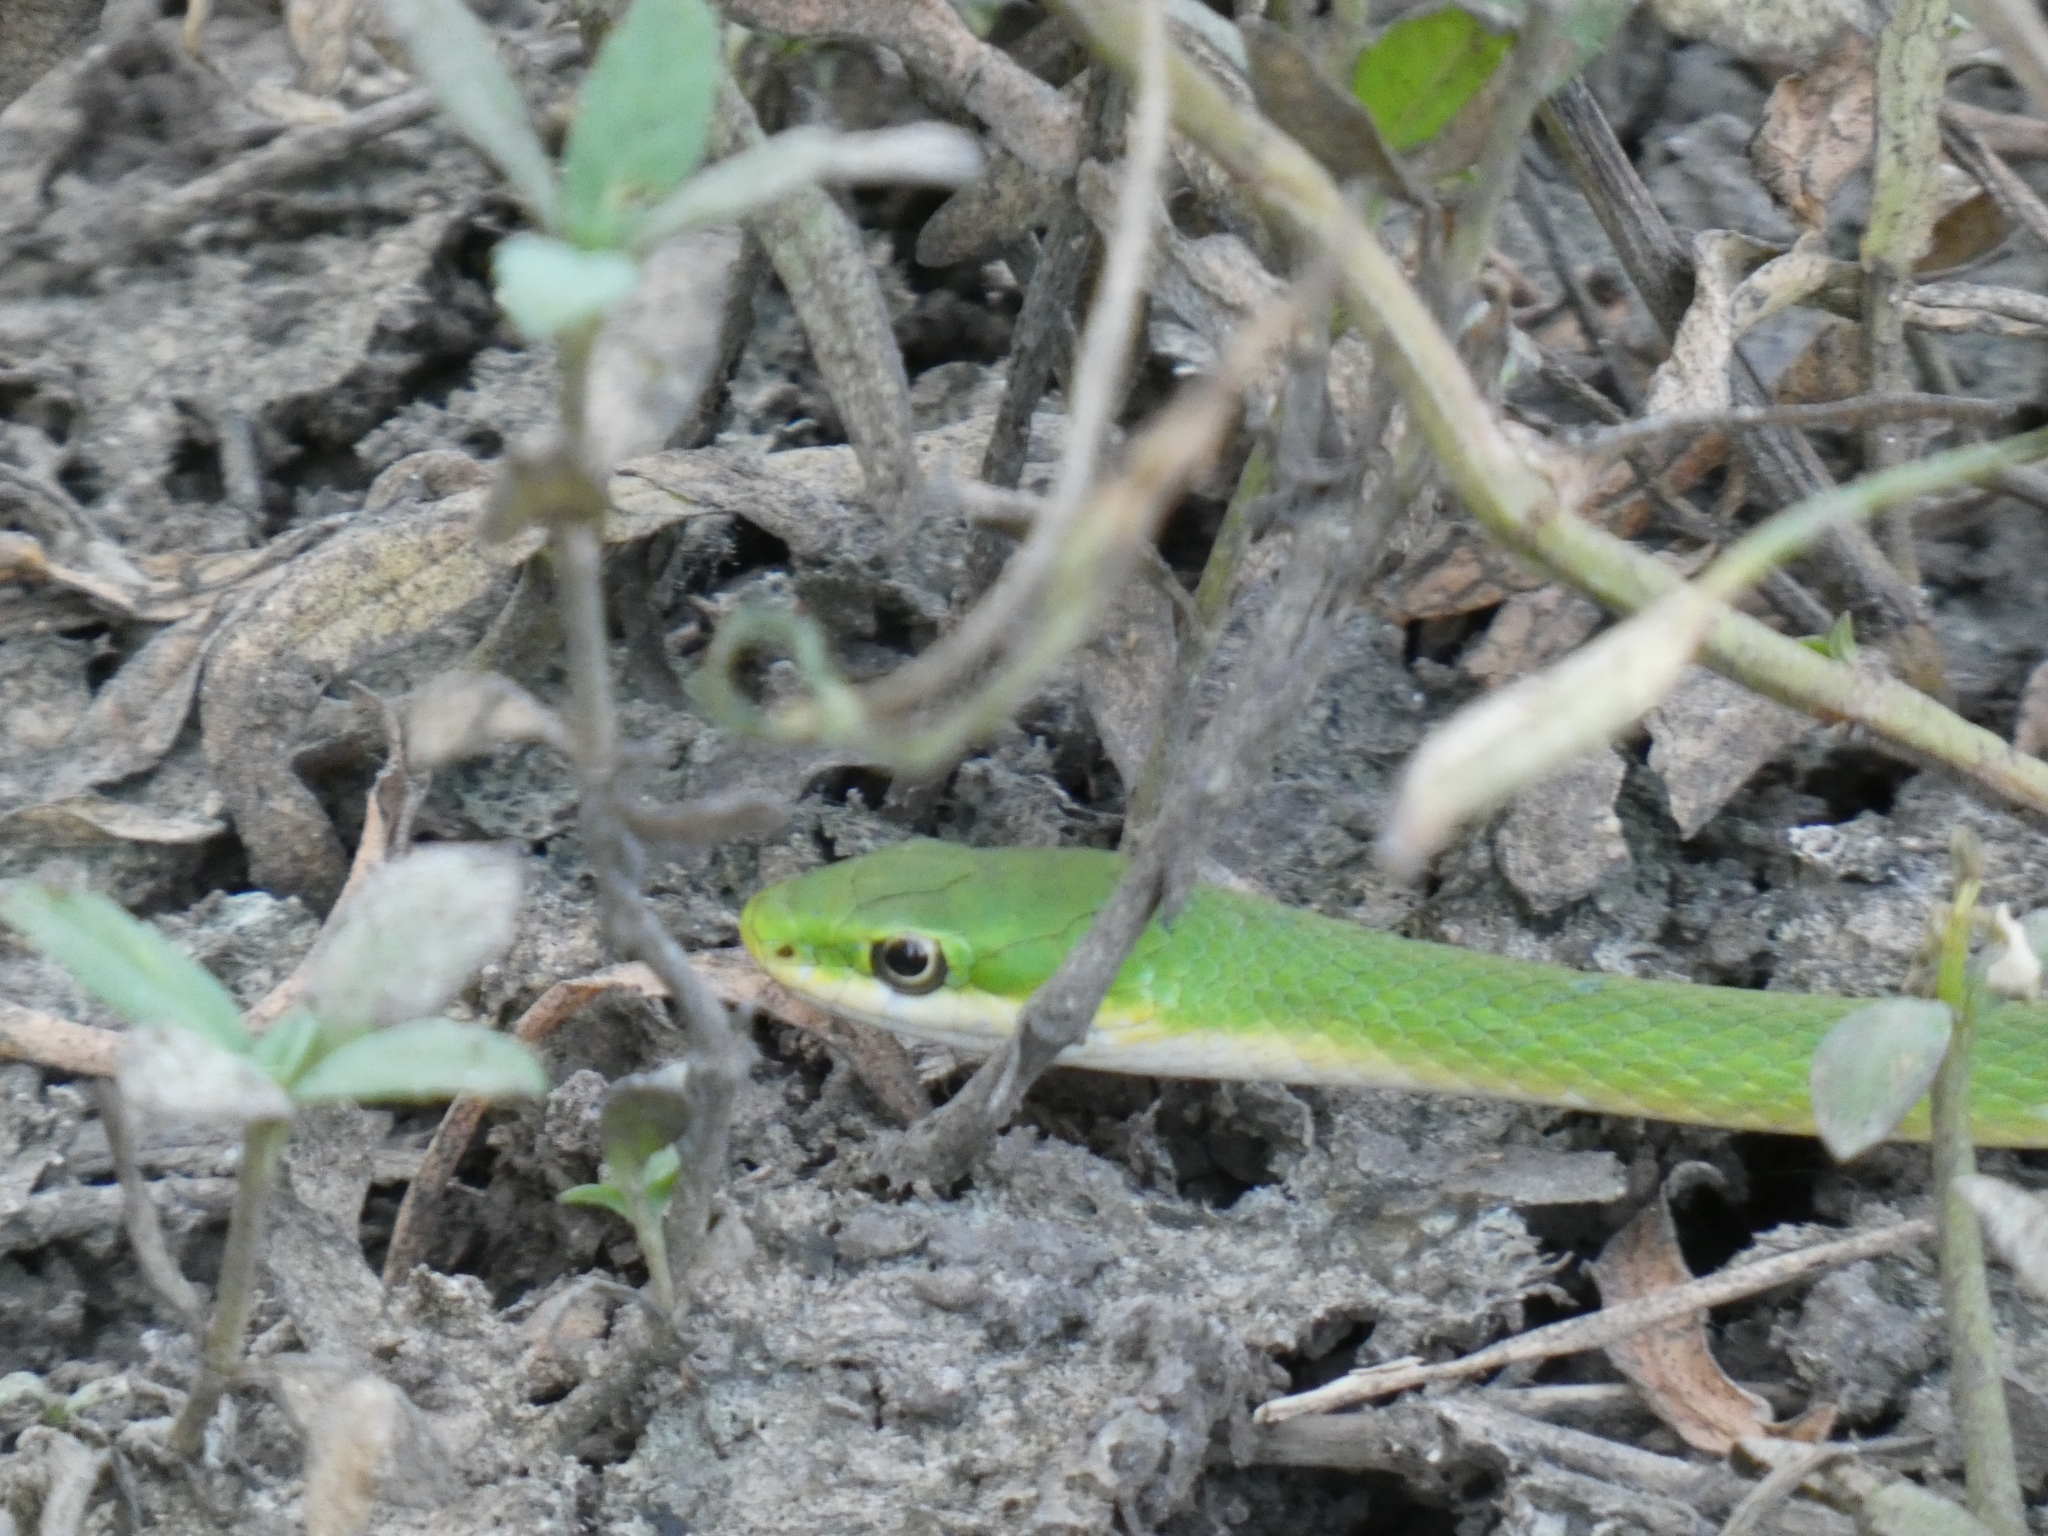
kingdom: Animalia
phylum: Chordata
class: Squamata
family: Colubridae
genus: Opheodrys
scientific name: Opheodrys aestivus
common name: Rough greensnake
